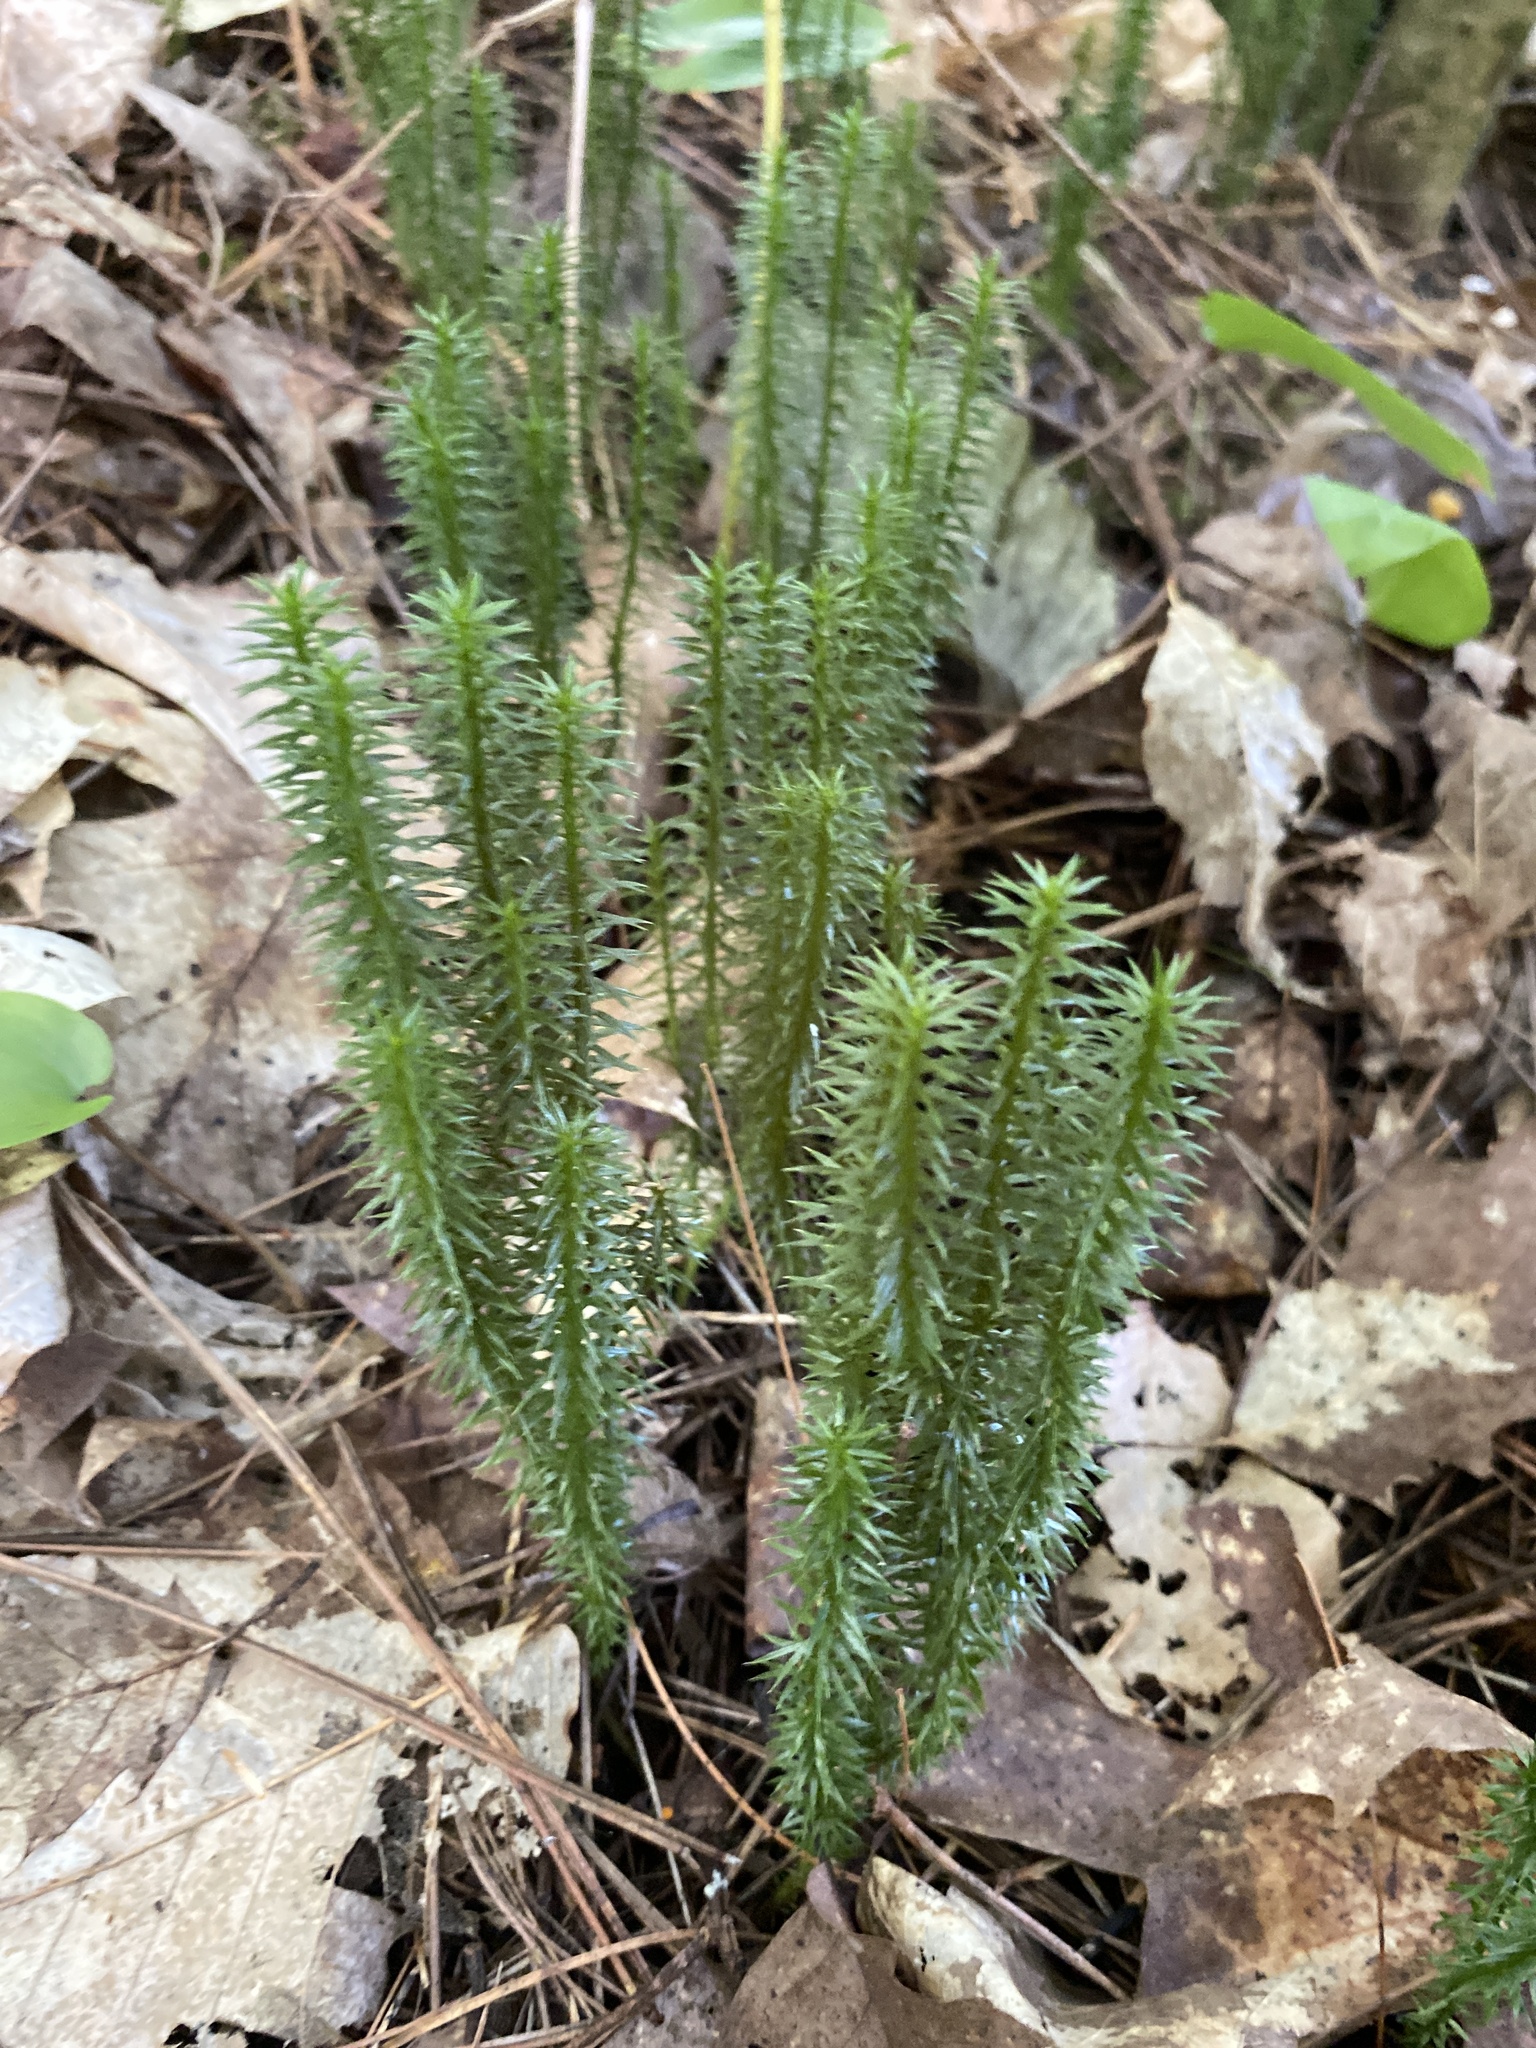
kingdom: Plantae
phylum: Tracheophyta
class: Lycopodiopsida
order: Lycopodiales
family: Lycopodiaceae
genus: Spinulum
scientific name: Spinulum annotinum
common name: Interrupted club-moss
